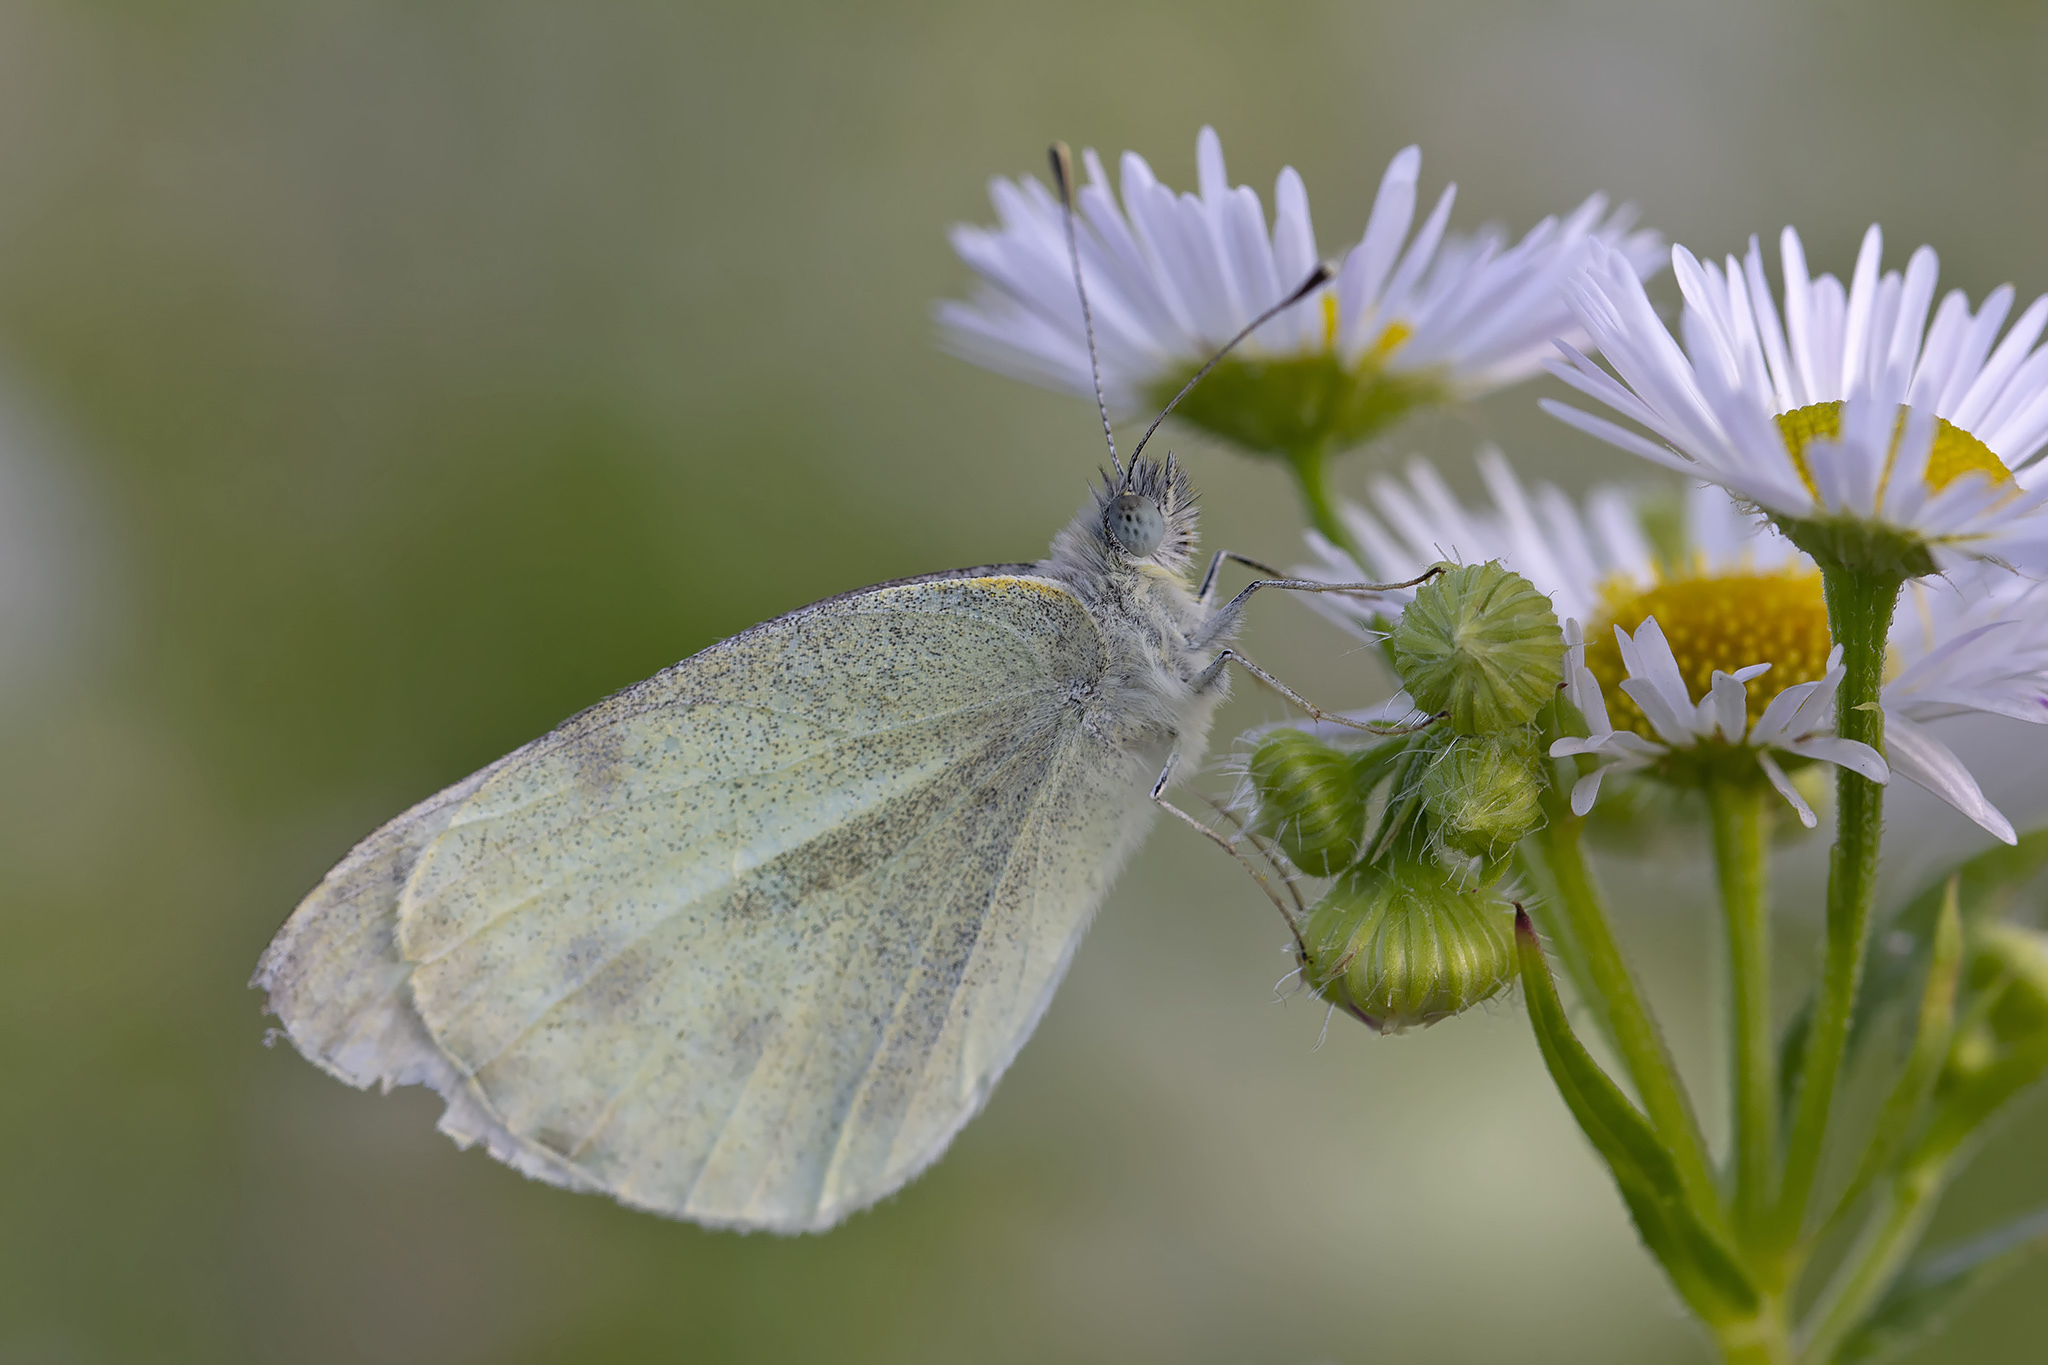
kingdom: Animalia
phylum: Arthropoda
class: Insecta
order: Lepidoptera
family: Pieridae
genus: Pieris
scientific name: Pieris rapae
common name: Small white
